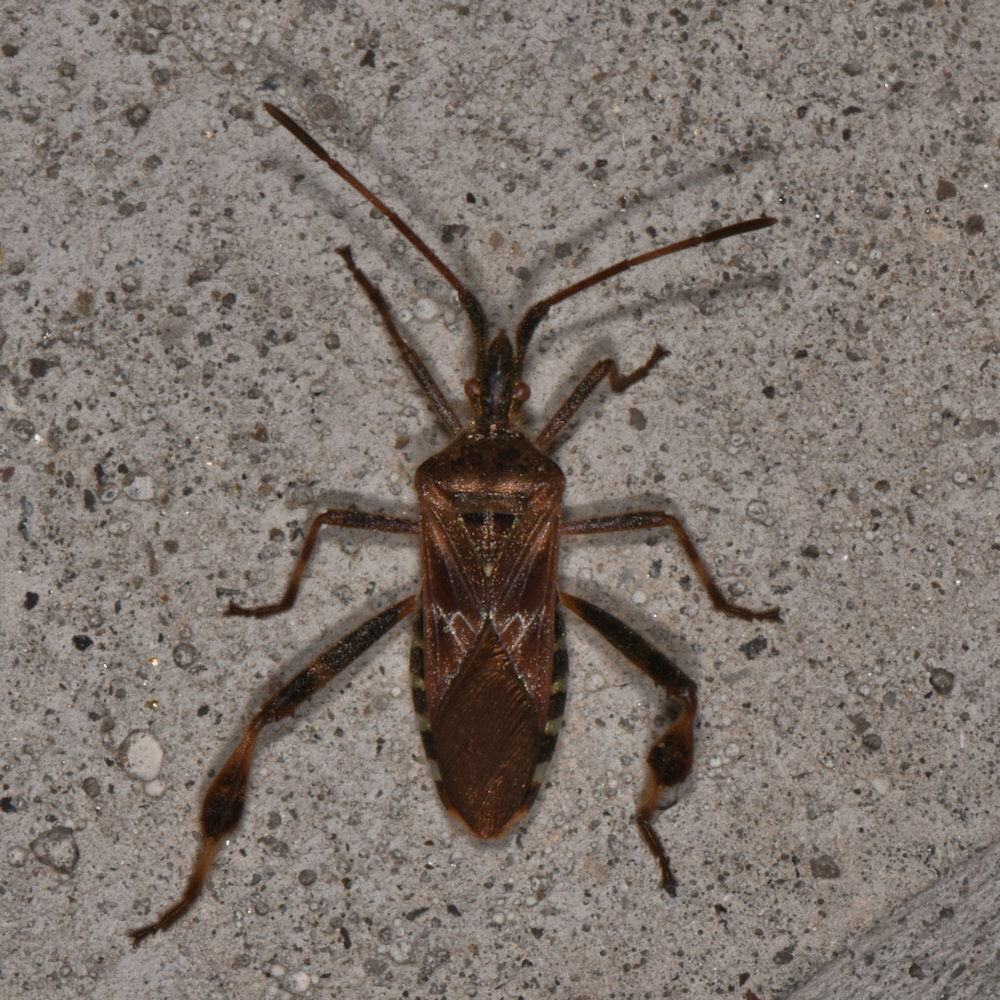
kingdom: Animalia
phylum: Arthropoda
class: Insecta
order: Hemiptera
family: Coreidae
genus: Leptoglossus
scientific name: Leptoglossus occidentalis
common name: Western conifer-seed bug
